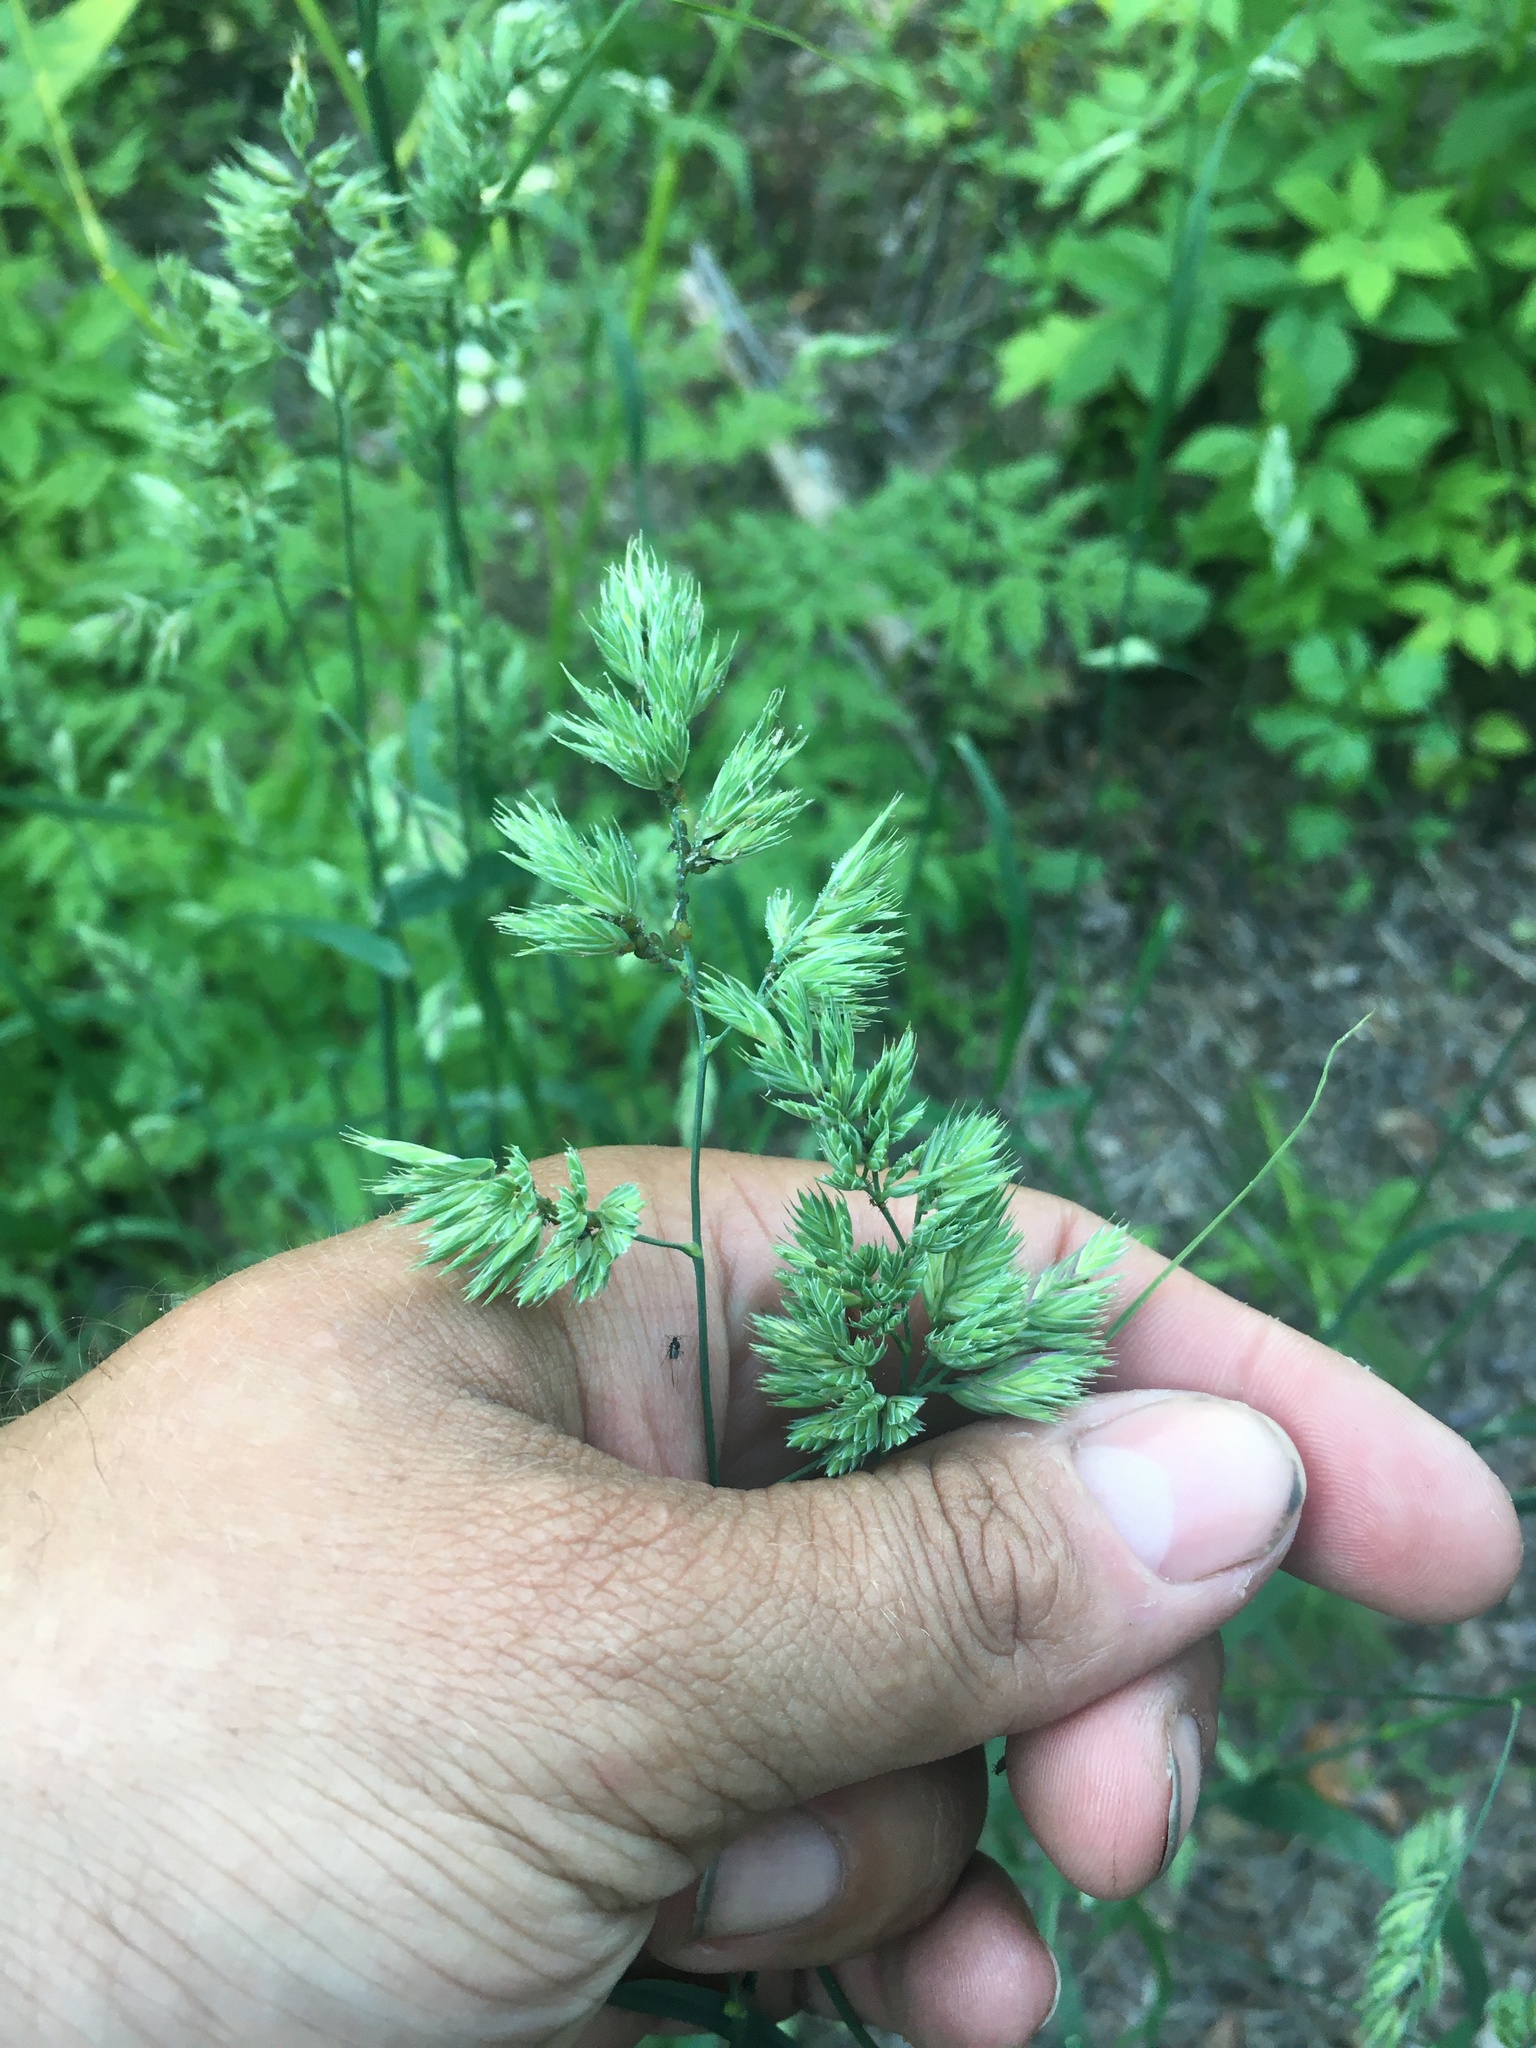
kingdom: Plantae
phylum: Tracheophyta
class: Liliopsida
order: Poales
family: Poaceae
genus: Dactylis
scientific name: Dactylis glomerata
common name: Orchardgrass
